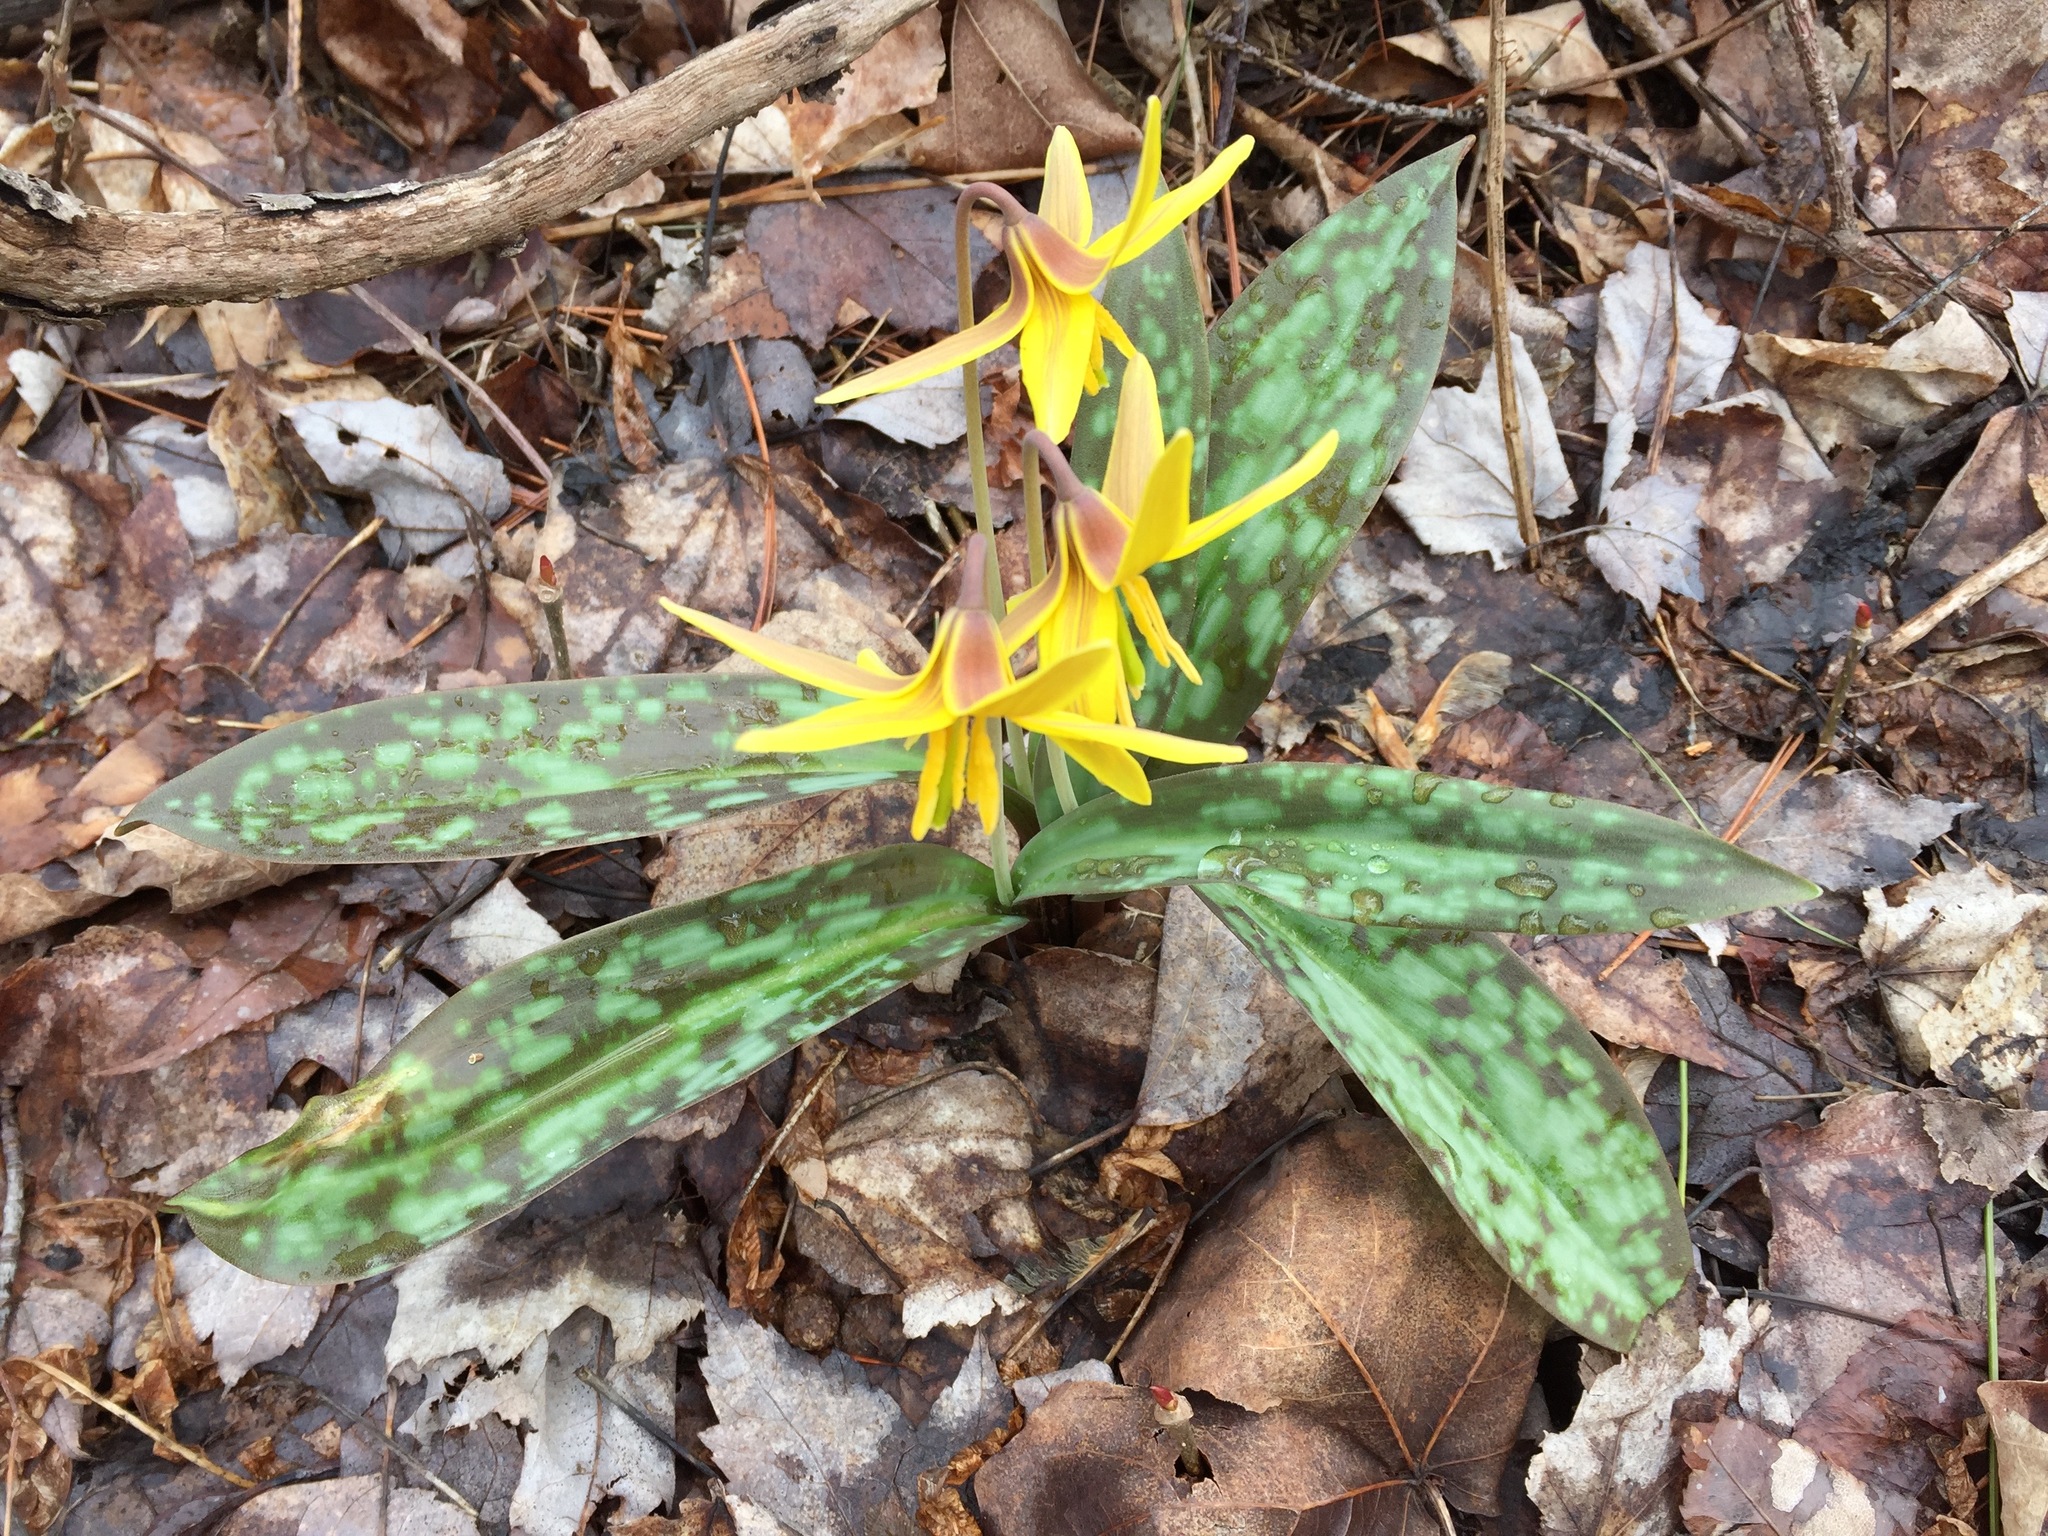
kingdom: Plantae
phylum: Tracheophyta
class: Liliopsida
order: Liliales
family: Liliaceae
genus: Erythronium
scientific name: Erythronium americanum
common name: Yellow adder's-tongue
